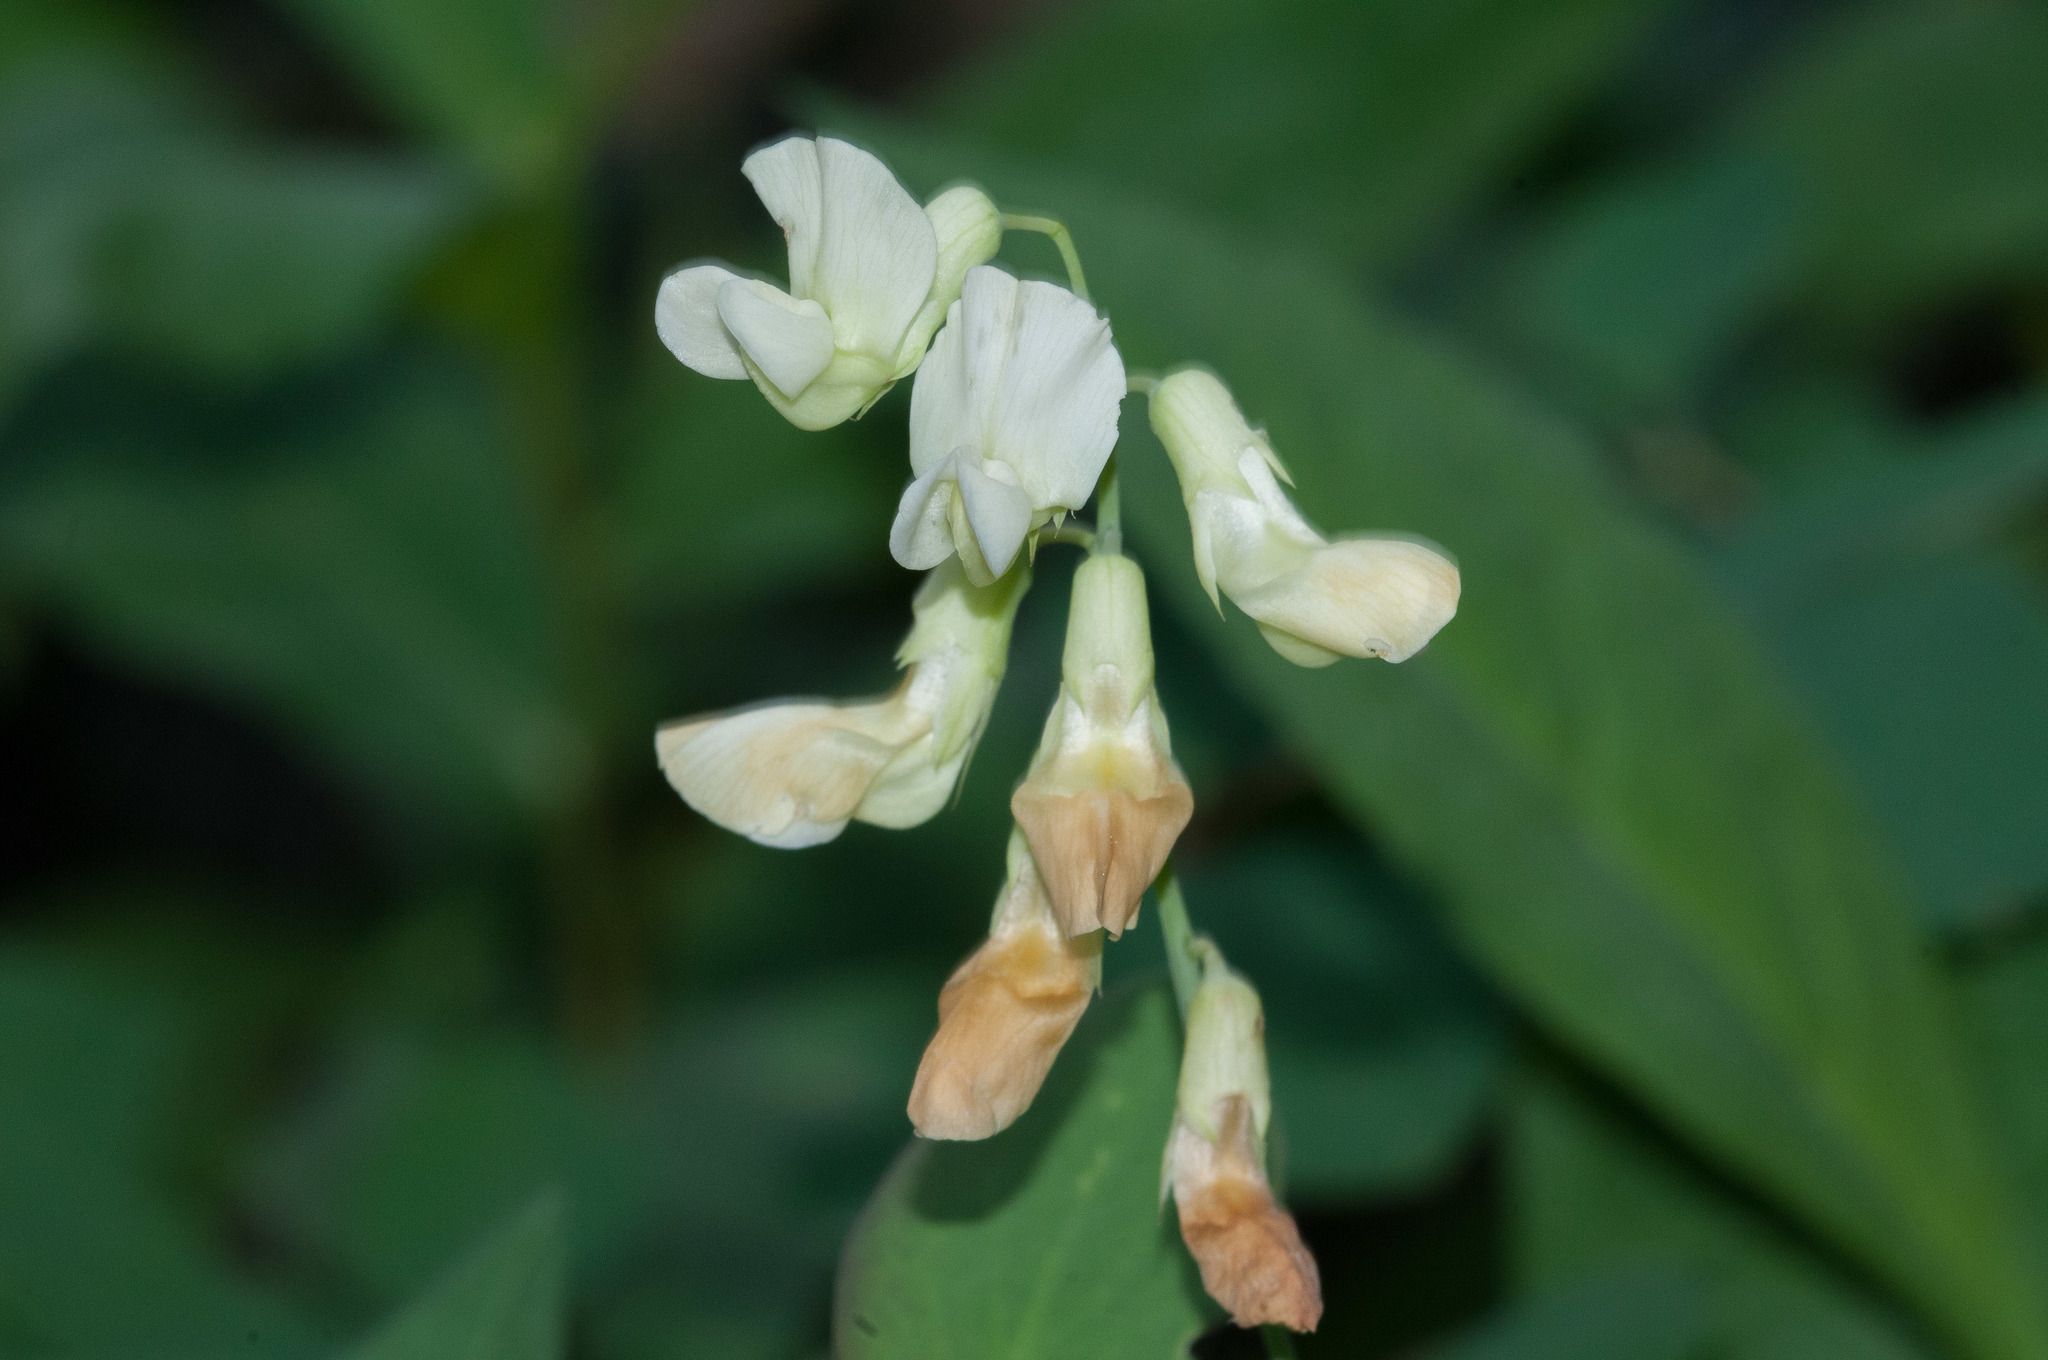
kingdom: Plantae
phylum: Tracheophyta
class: Magnoliopsida
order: Fabales
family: Fabaceae
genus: Lathyrus
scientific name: Lathyrus ochroleucus
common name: Pale vetchling
